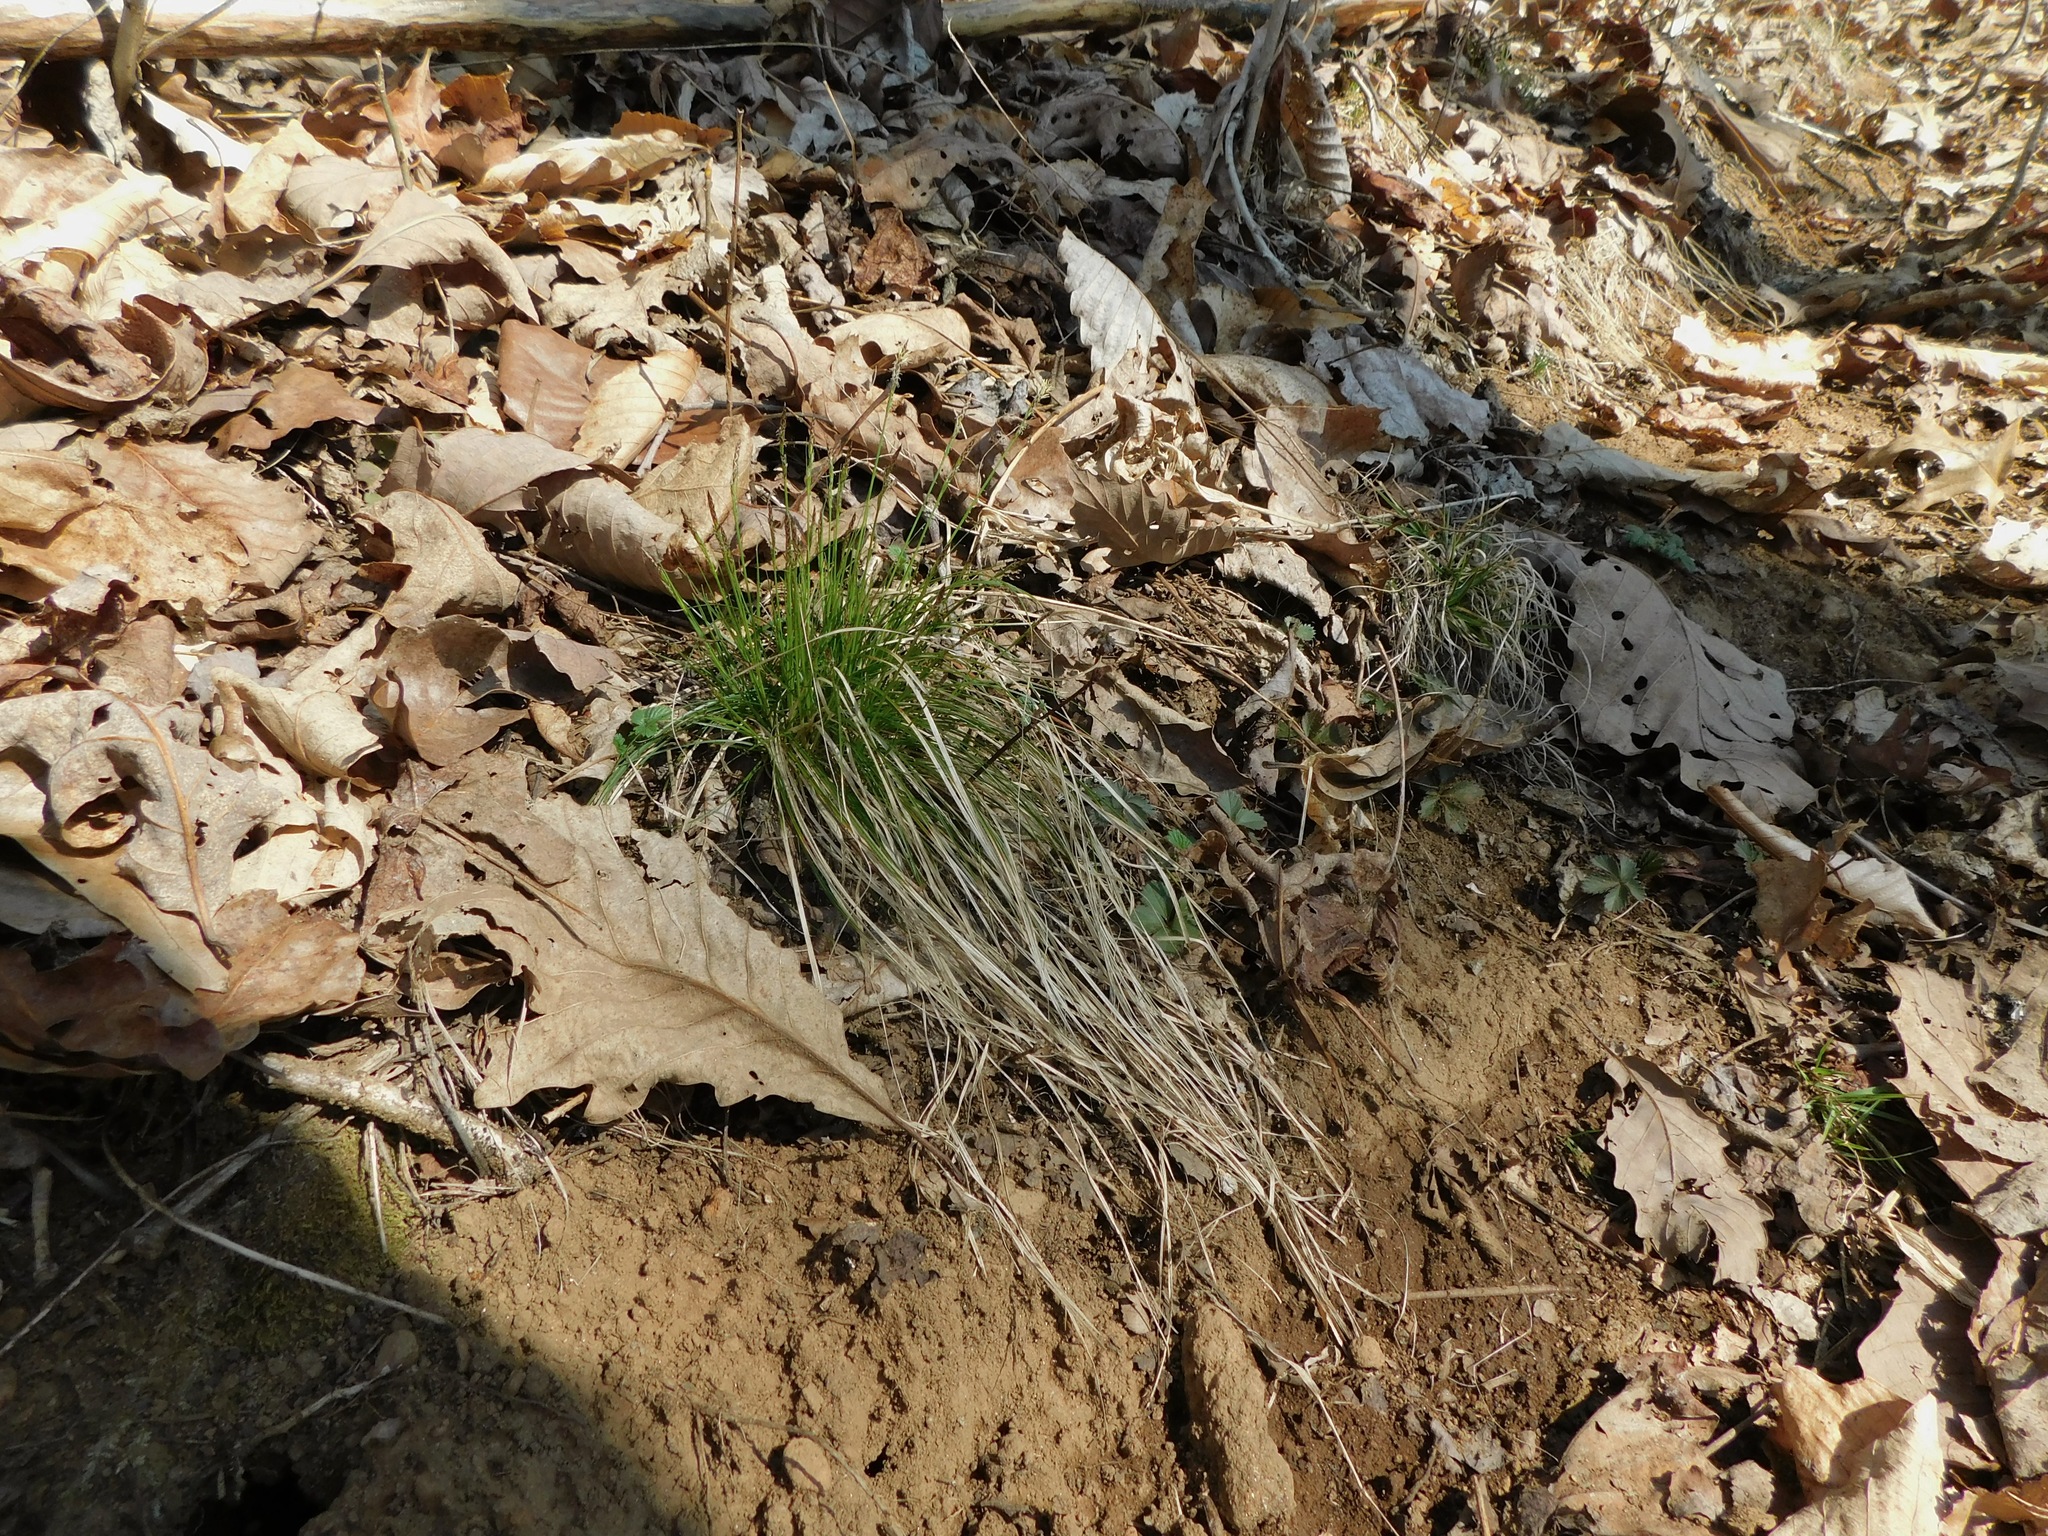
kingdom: Plantae
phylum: Tracheophyta
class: Liliopsida
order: Poales
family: Cyperaceae
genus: Carex
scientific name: Carex pensylvanica
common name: Common oak sedge
